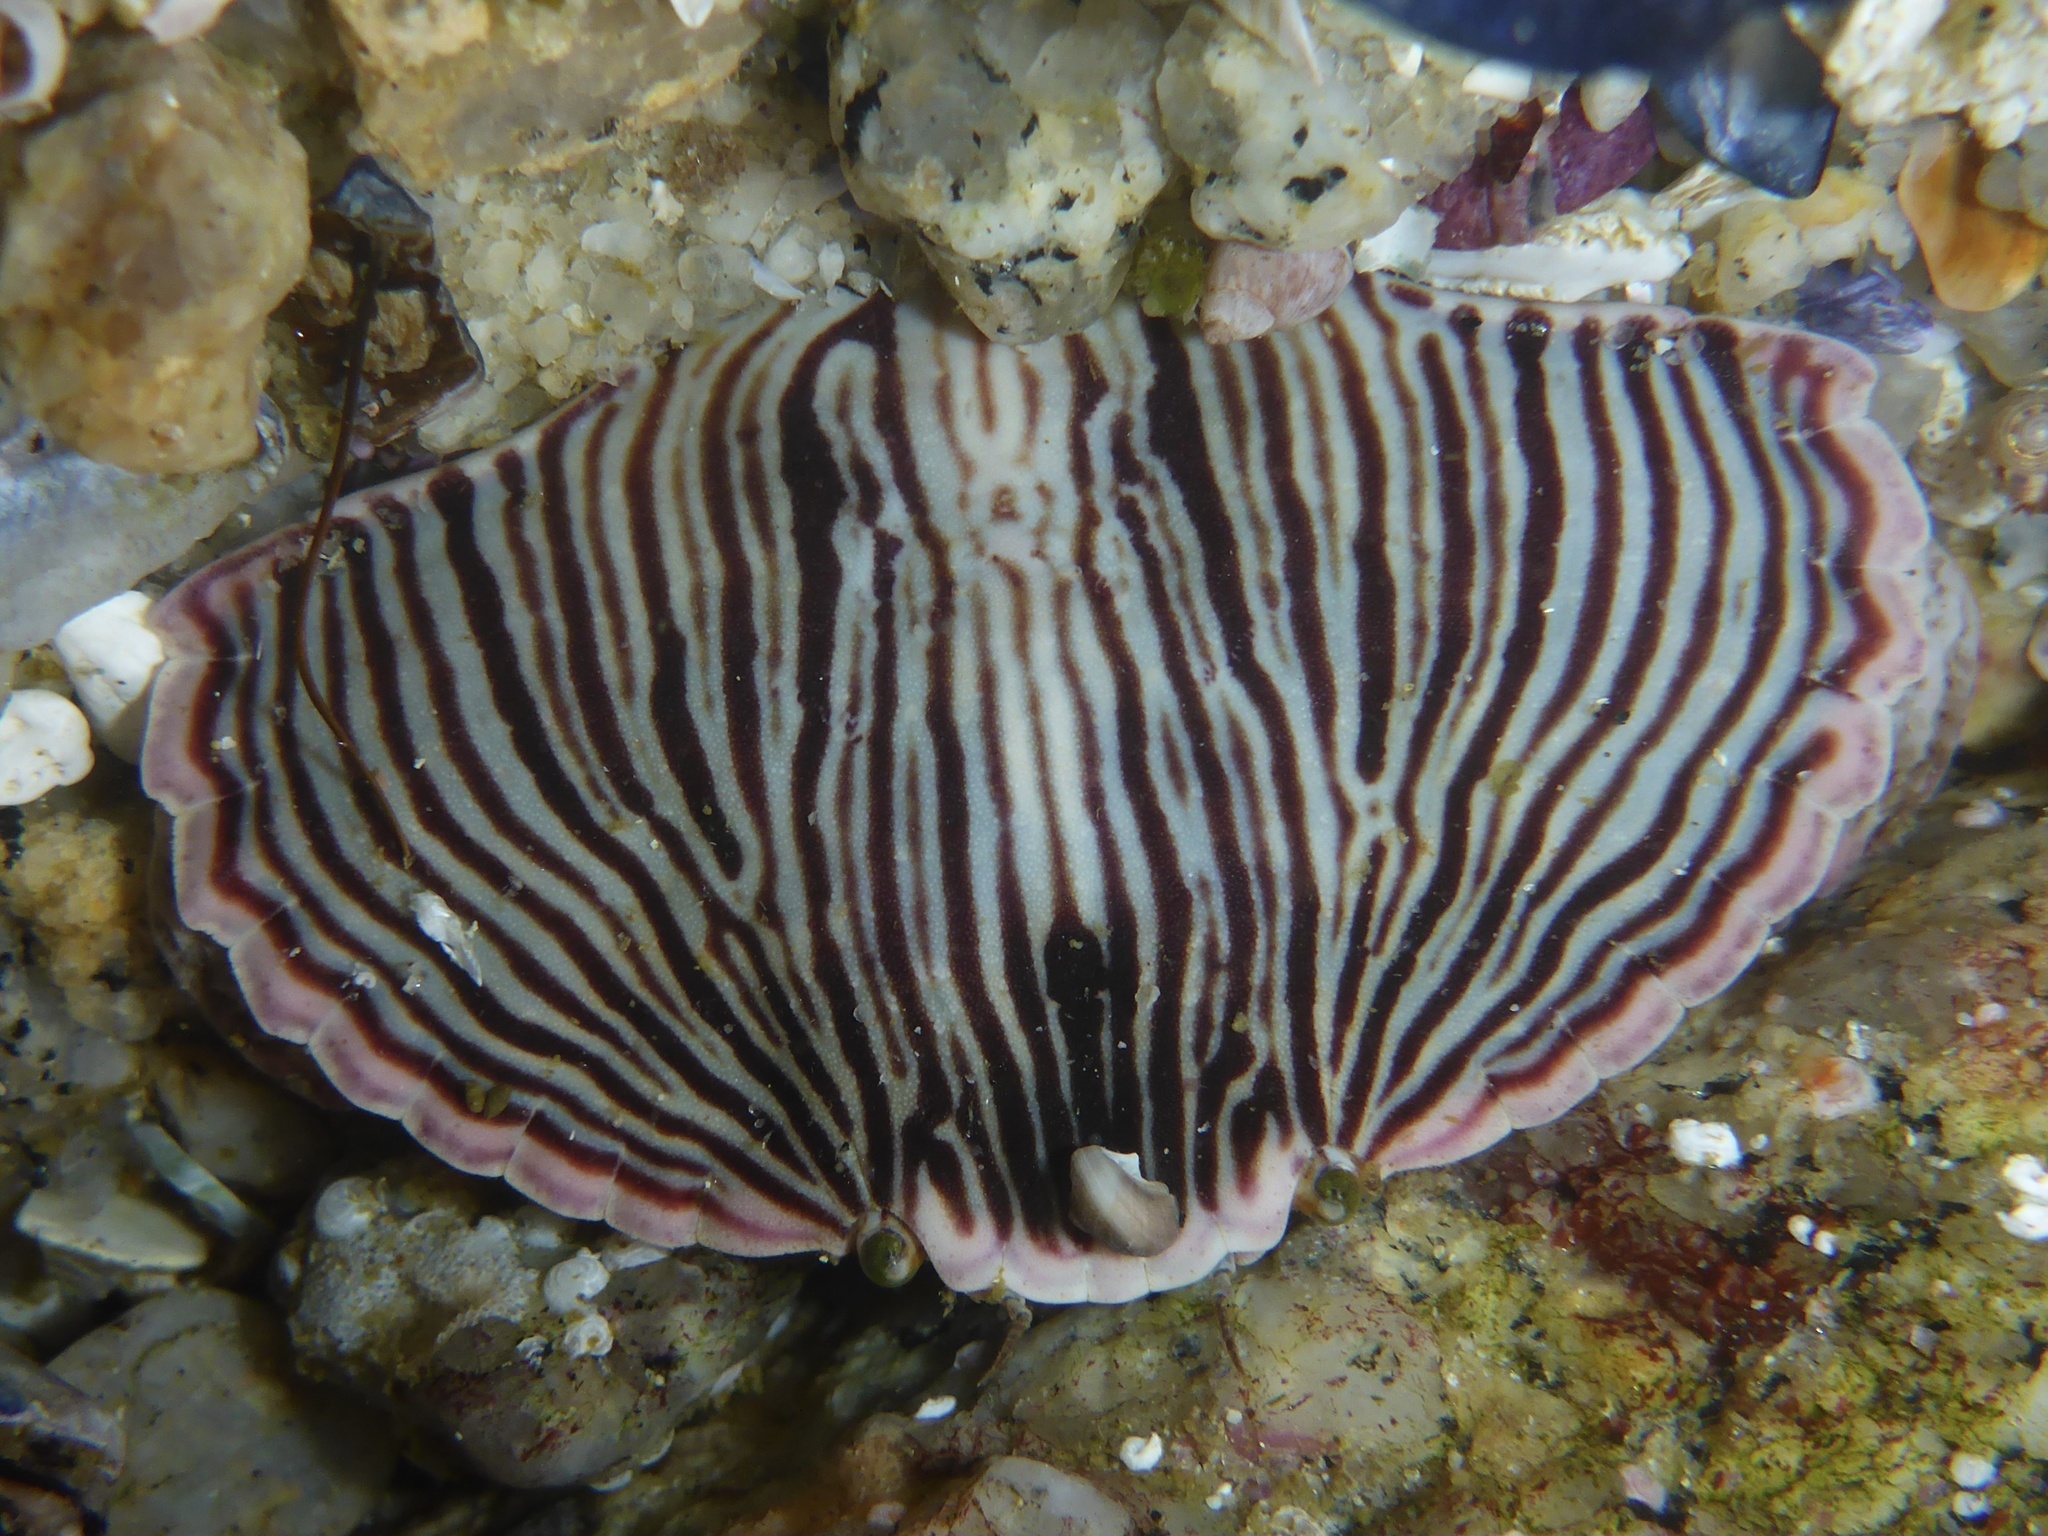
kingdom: Animalia
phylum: Arthropoda
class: Malacostraca
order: Decapoda
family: Cancridae
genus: Cancer
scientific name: Cancer productus
